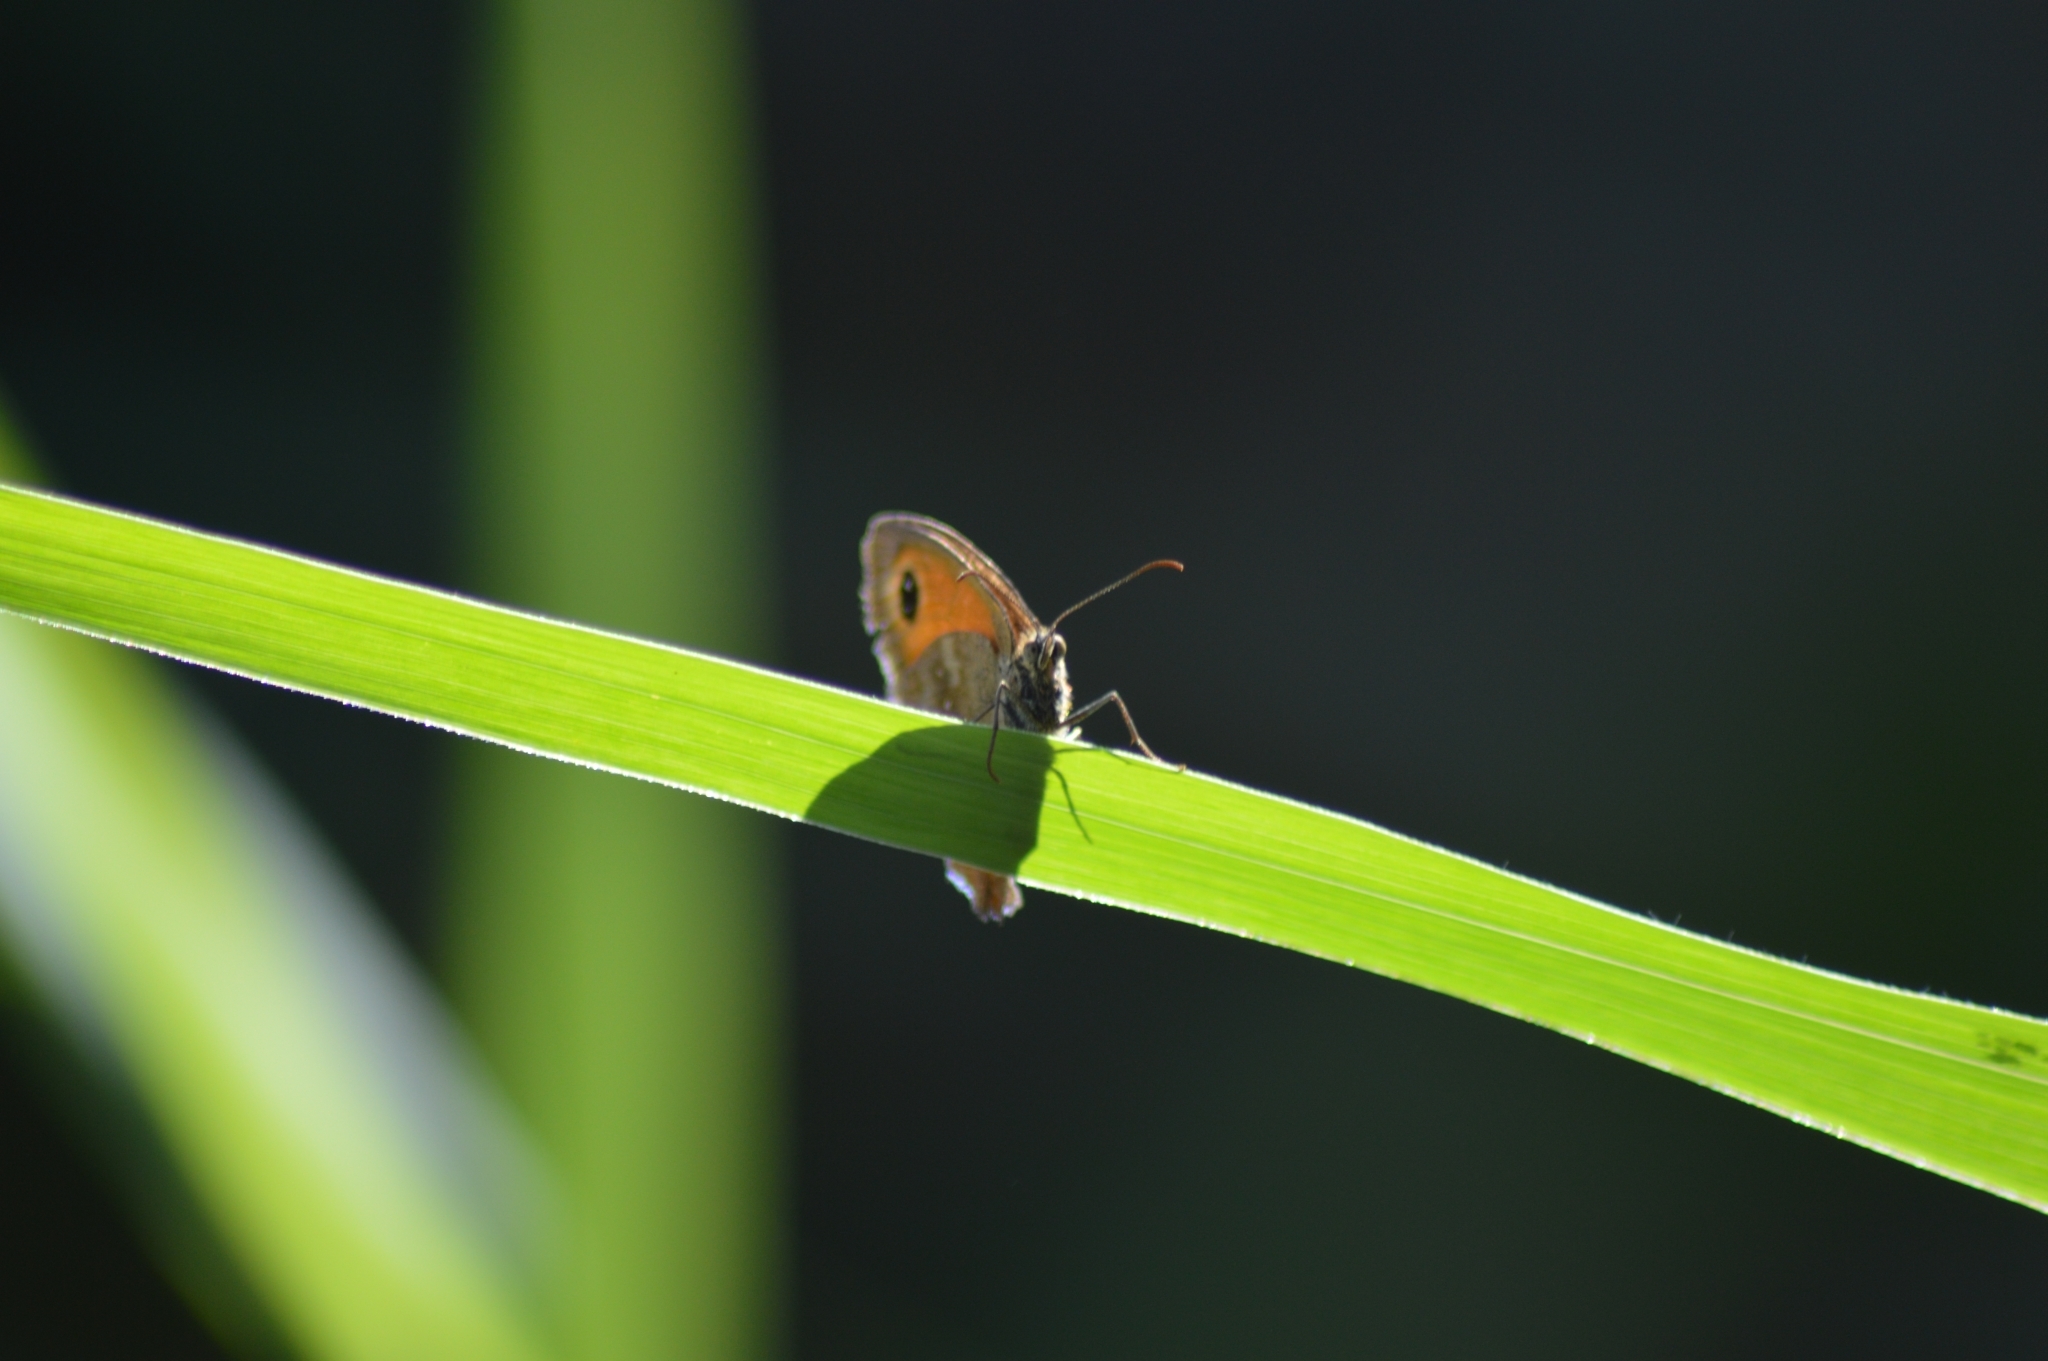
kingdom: Animalia
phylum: Arthropoda
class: Insecta
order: Lepidoptera
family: Nymphalidae
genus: Pyronia
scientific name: Pyronia tithonus
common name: Gatekeeper
